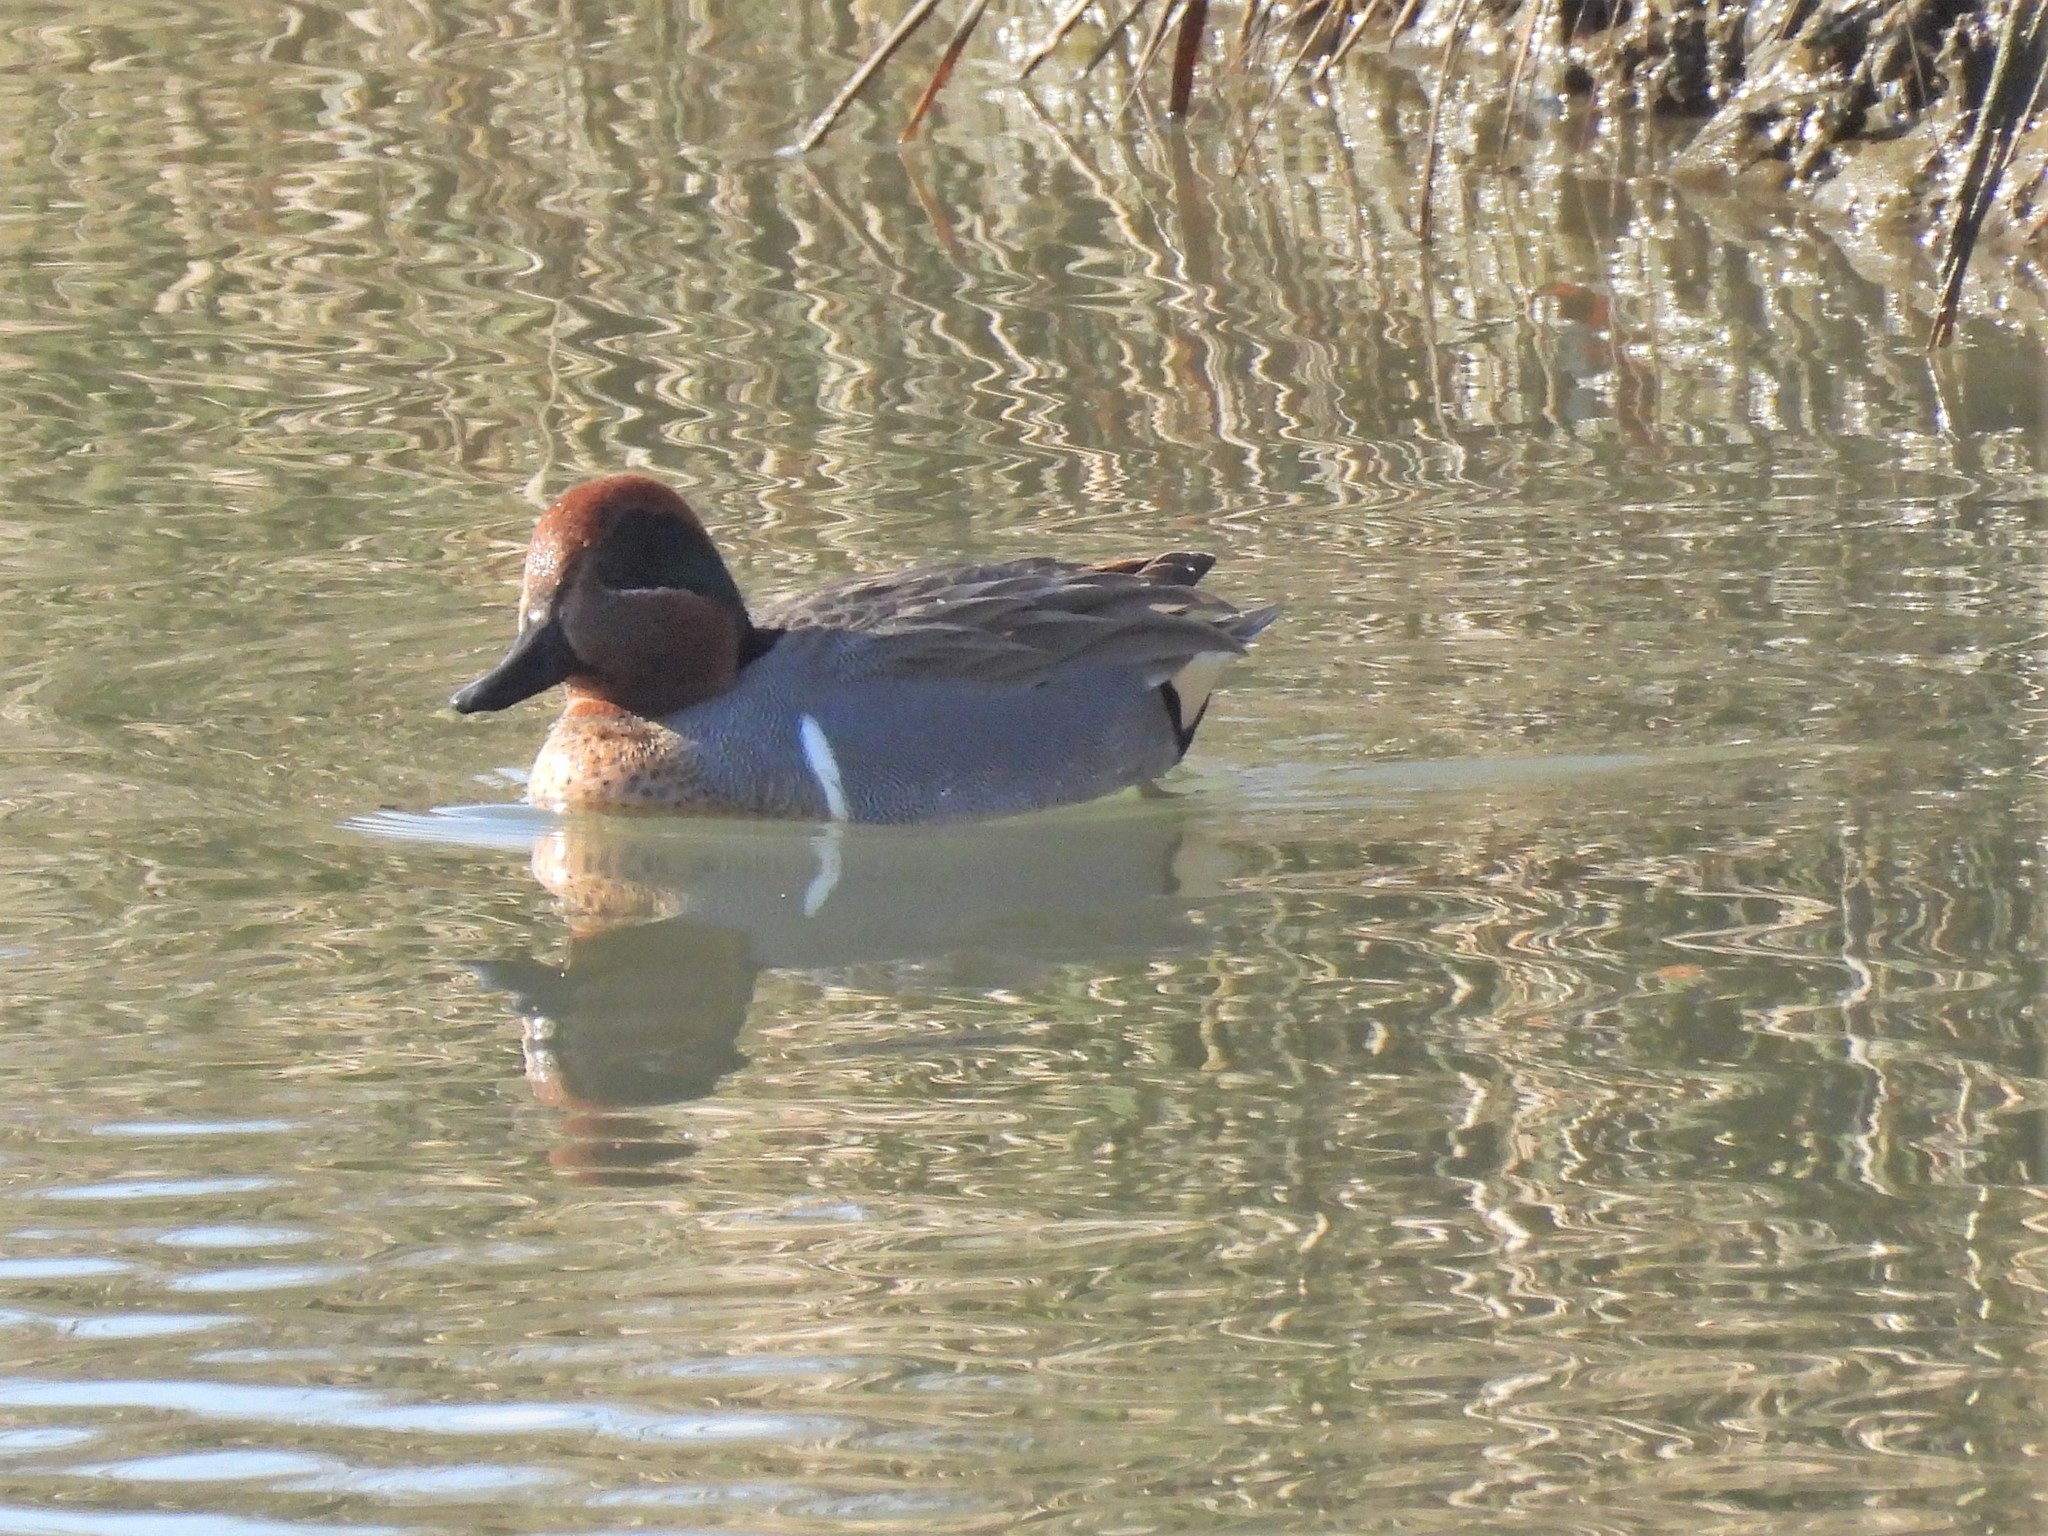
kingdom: Animalia
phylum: Chordata
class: Aves
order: Anseriformes
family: Anatidae
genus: Anas
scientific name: Anas crecca
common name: Eurasian teal
